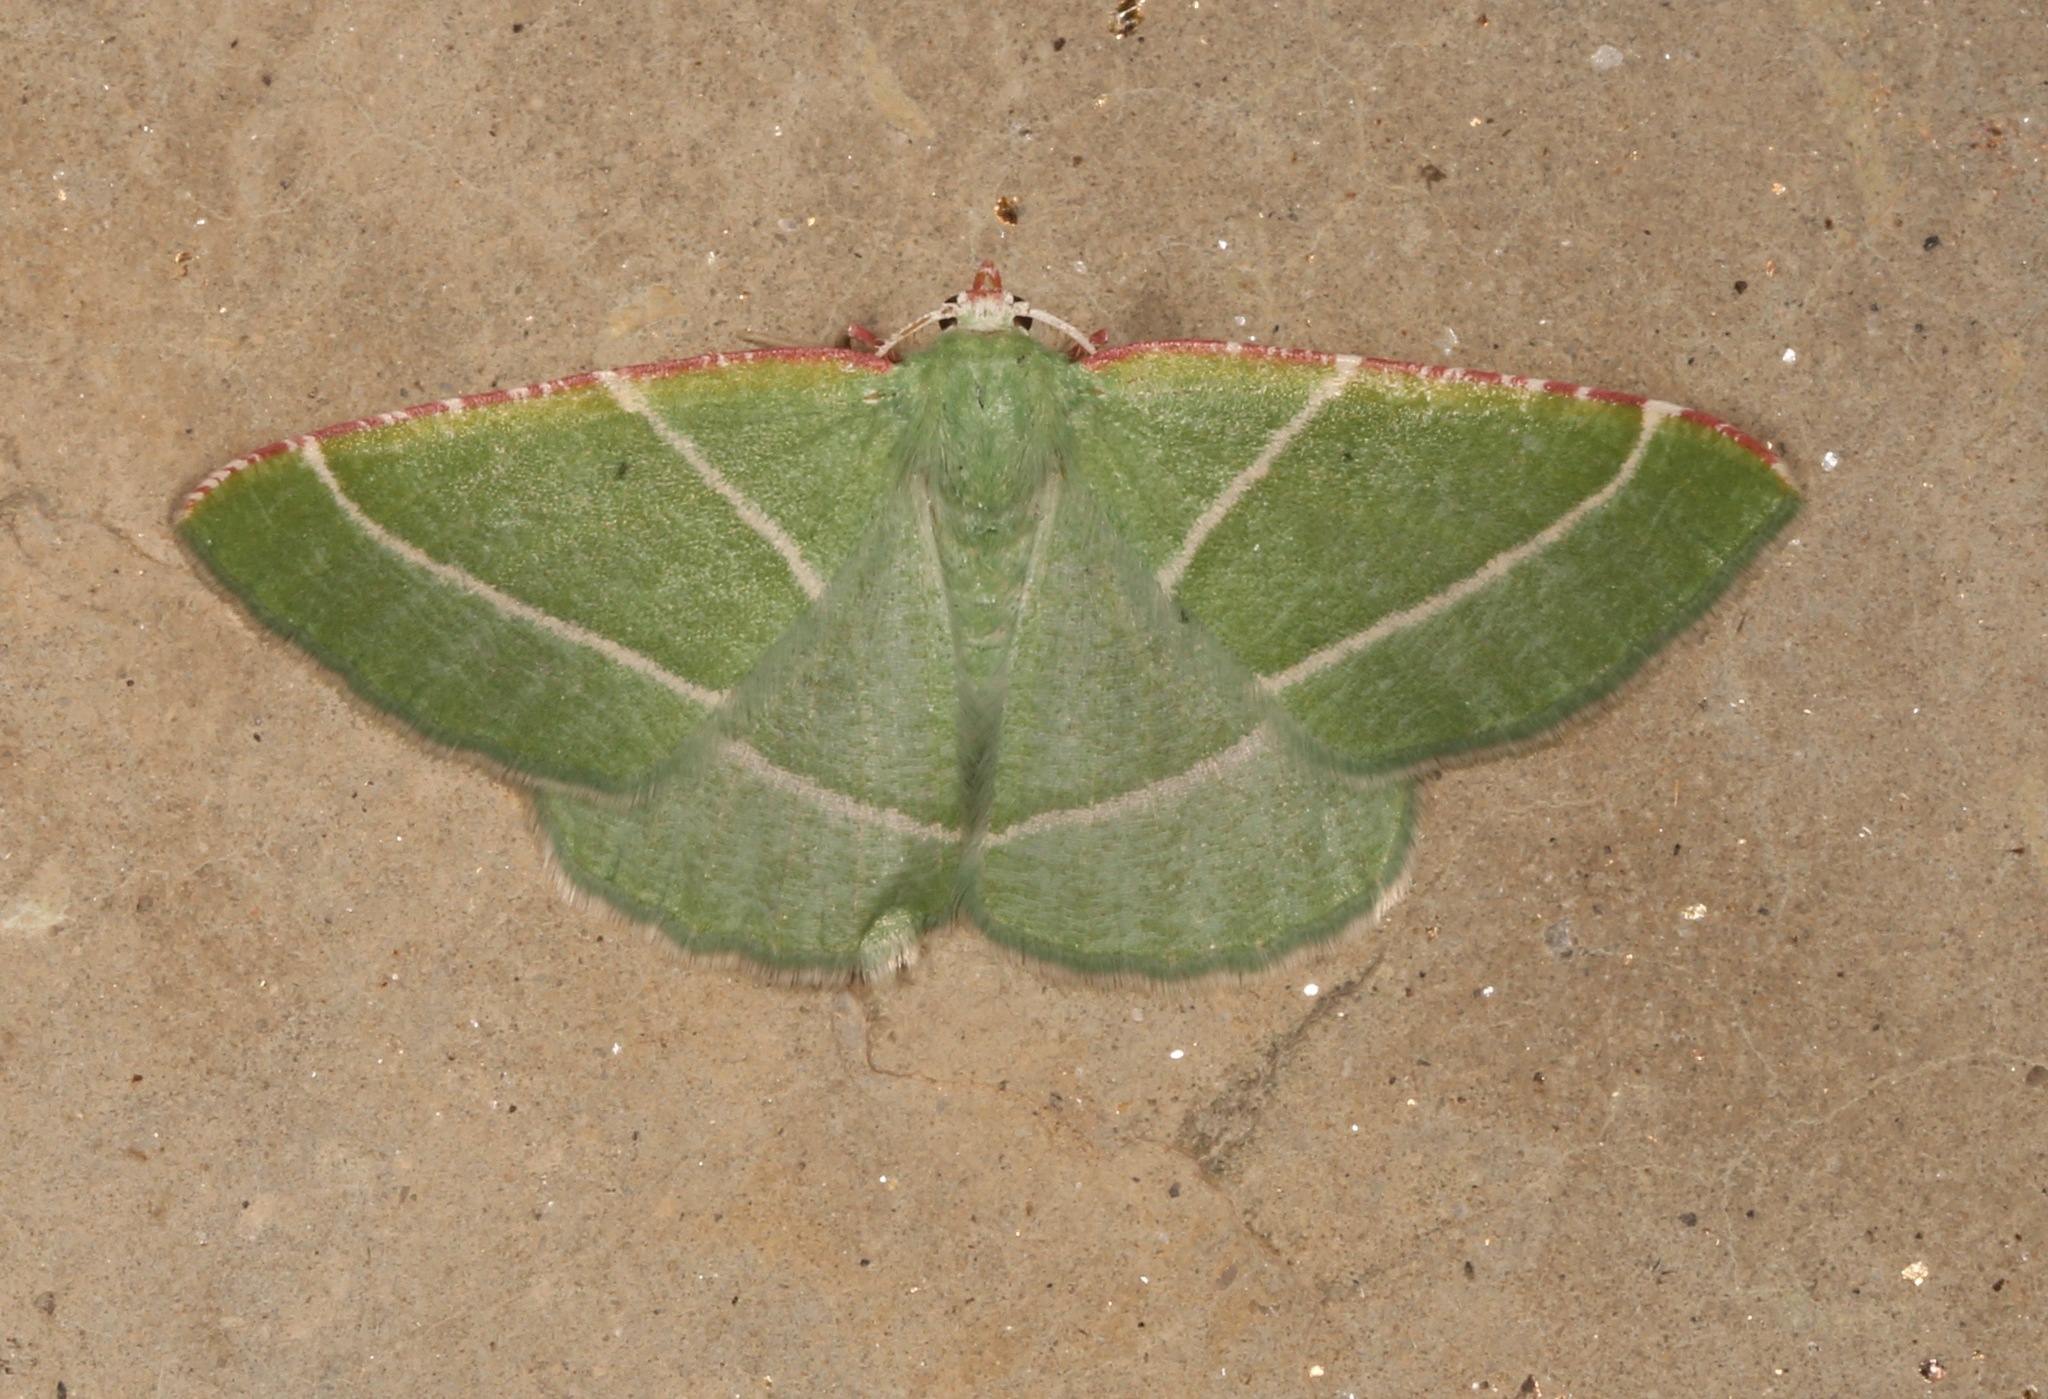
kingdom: Animalia
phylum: Arthropoda
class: Insecta
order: Lepidoptera
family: Geometridae
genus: Dichordophora
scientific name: Dichordophora phoenix
